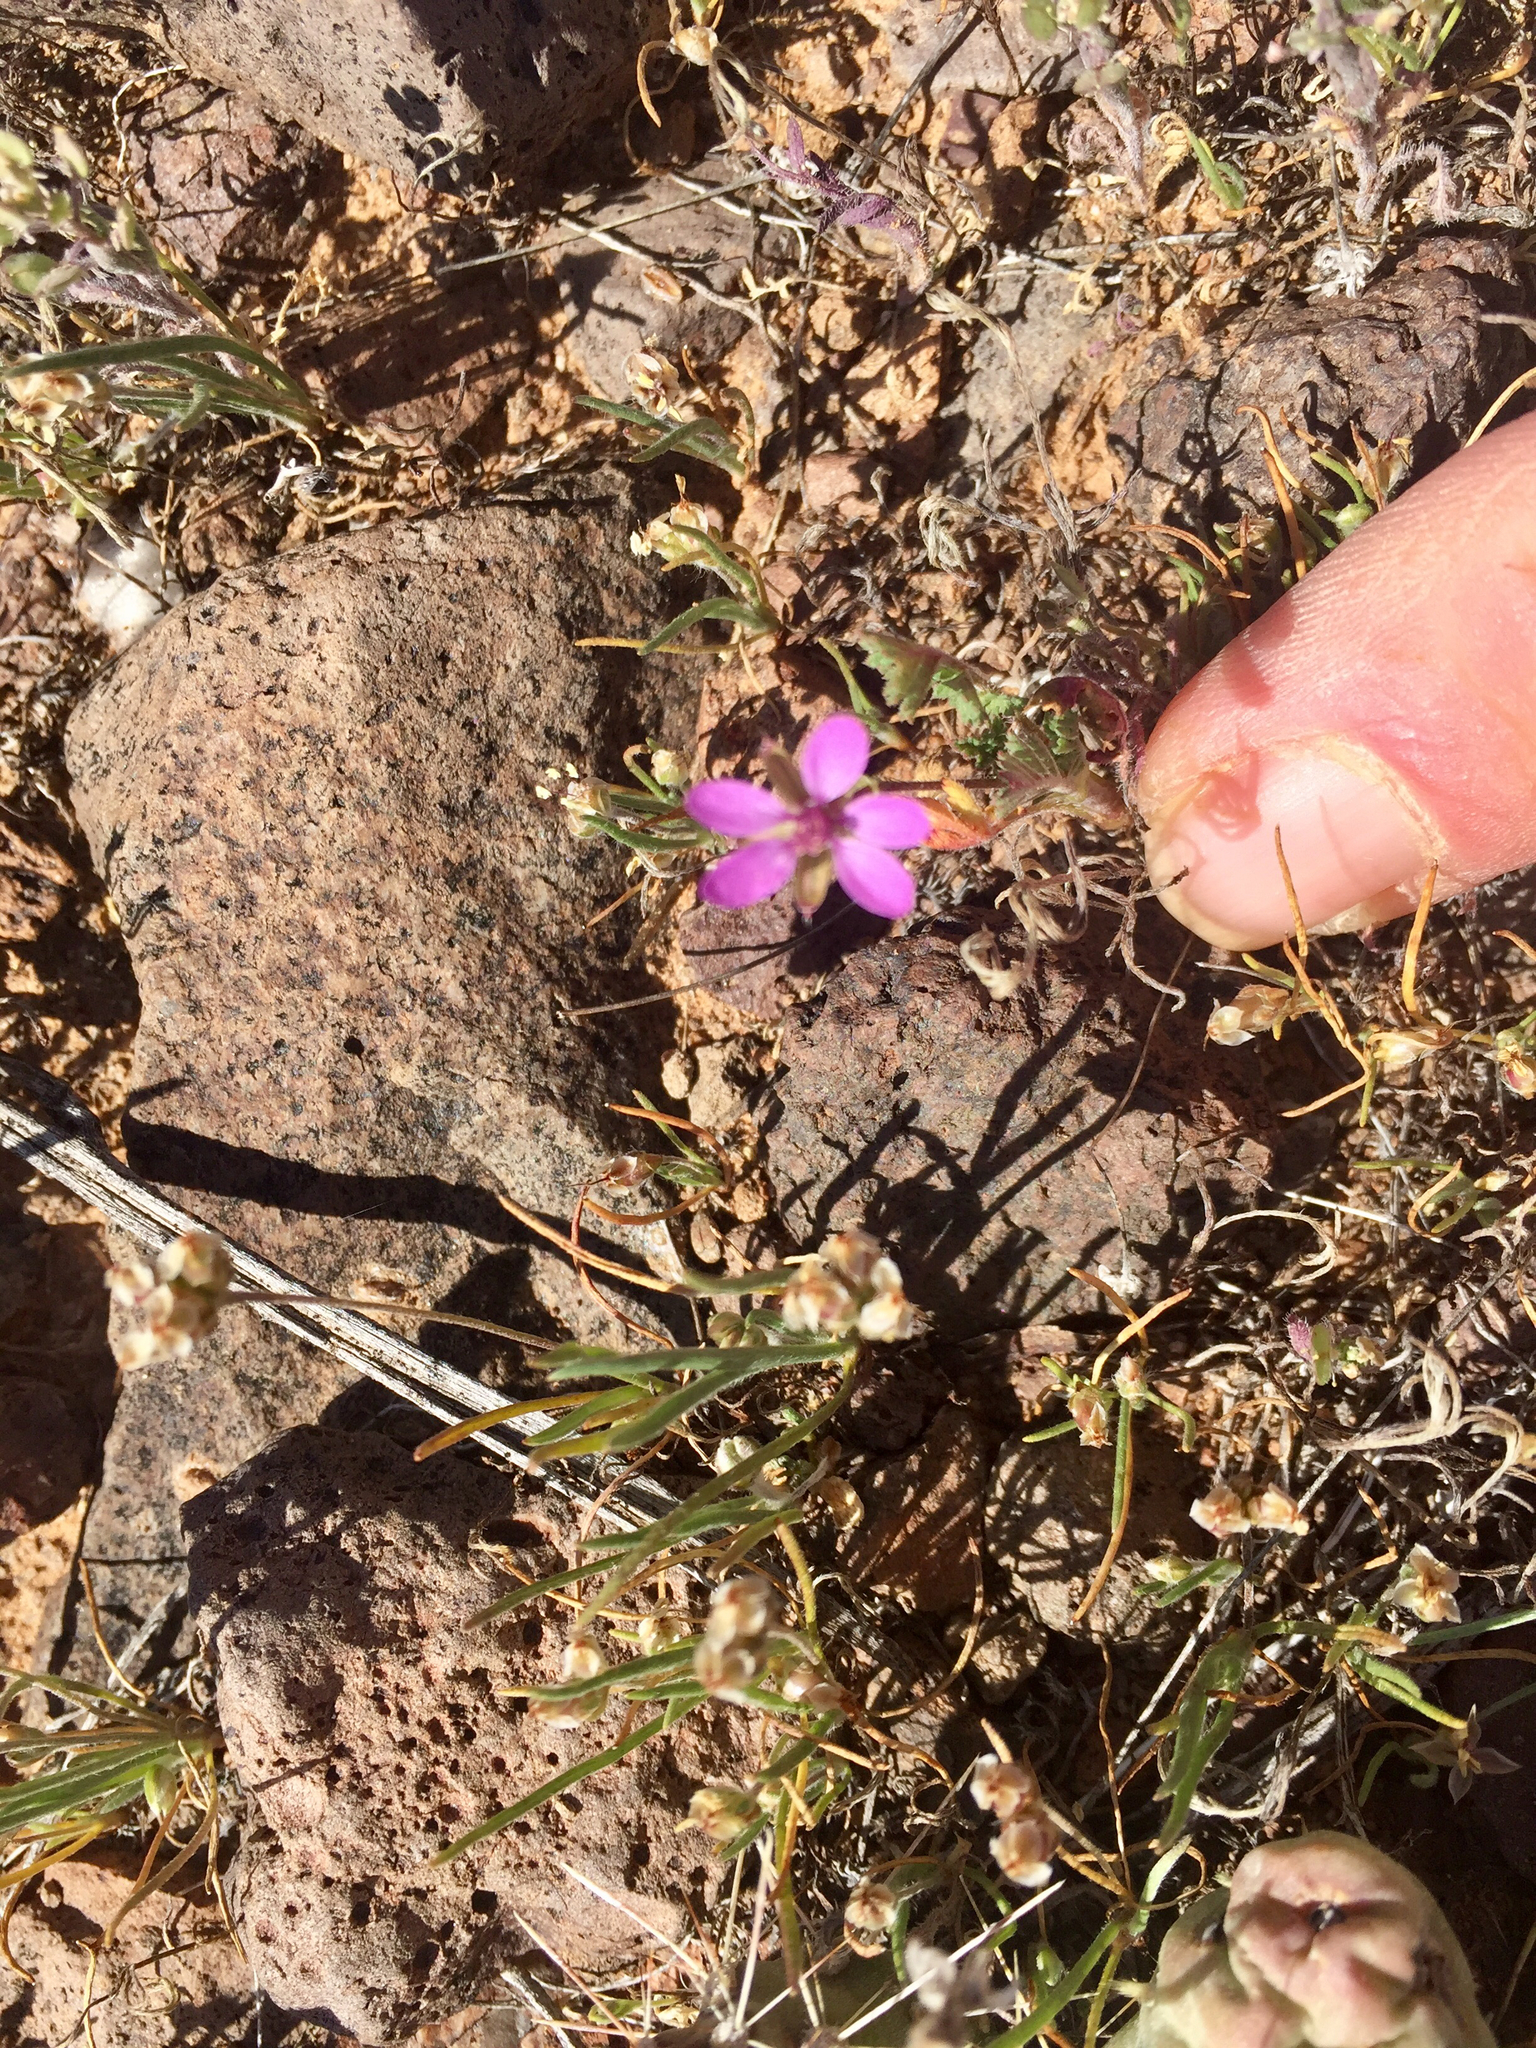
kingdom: Plantae
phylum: Tracheophyta
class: Magnoliopsida
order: Geraniales
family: Geraniaceae
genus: Erodium
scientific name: Erodium cicutarium
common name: Common stork's-bill
